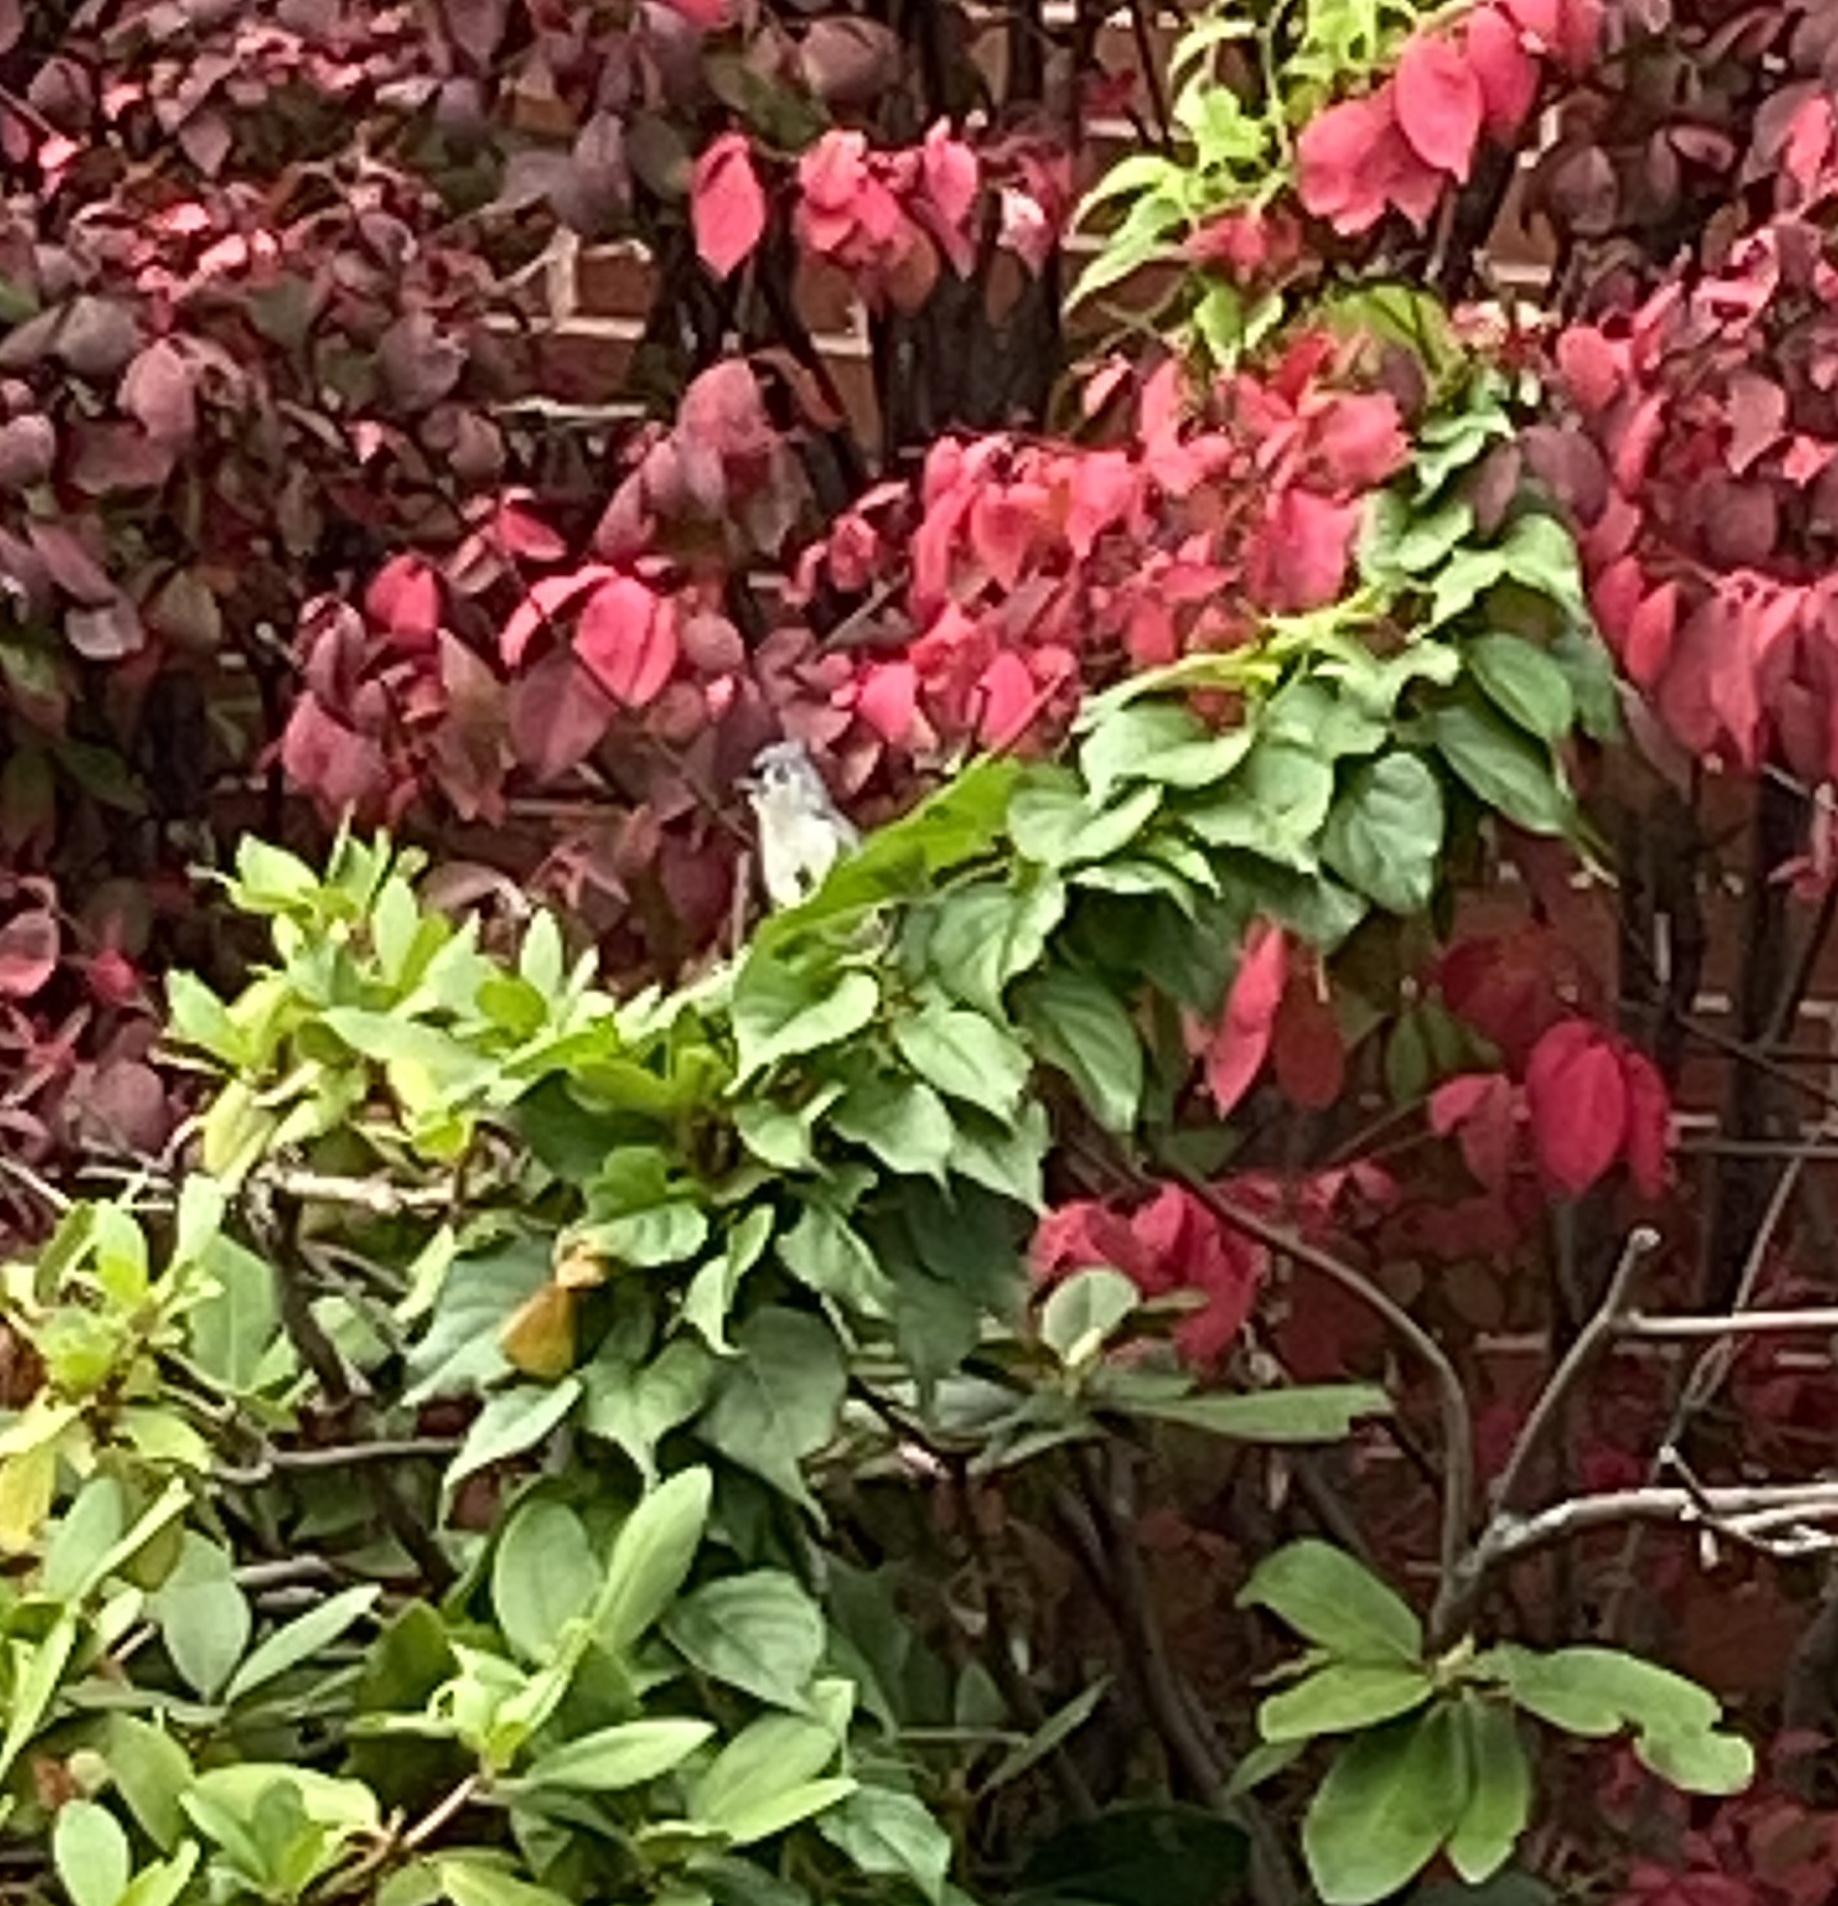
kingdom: Animalia
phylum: Chordata
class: Aves
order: Passeriformes
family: Paridae
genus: Baeolophus
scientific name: Baeolophus bicolor
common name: Tufted titmouse
